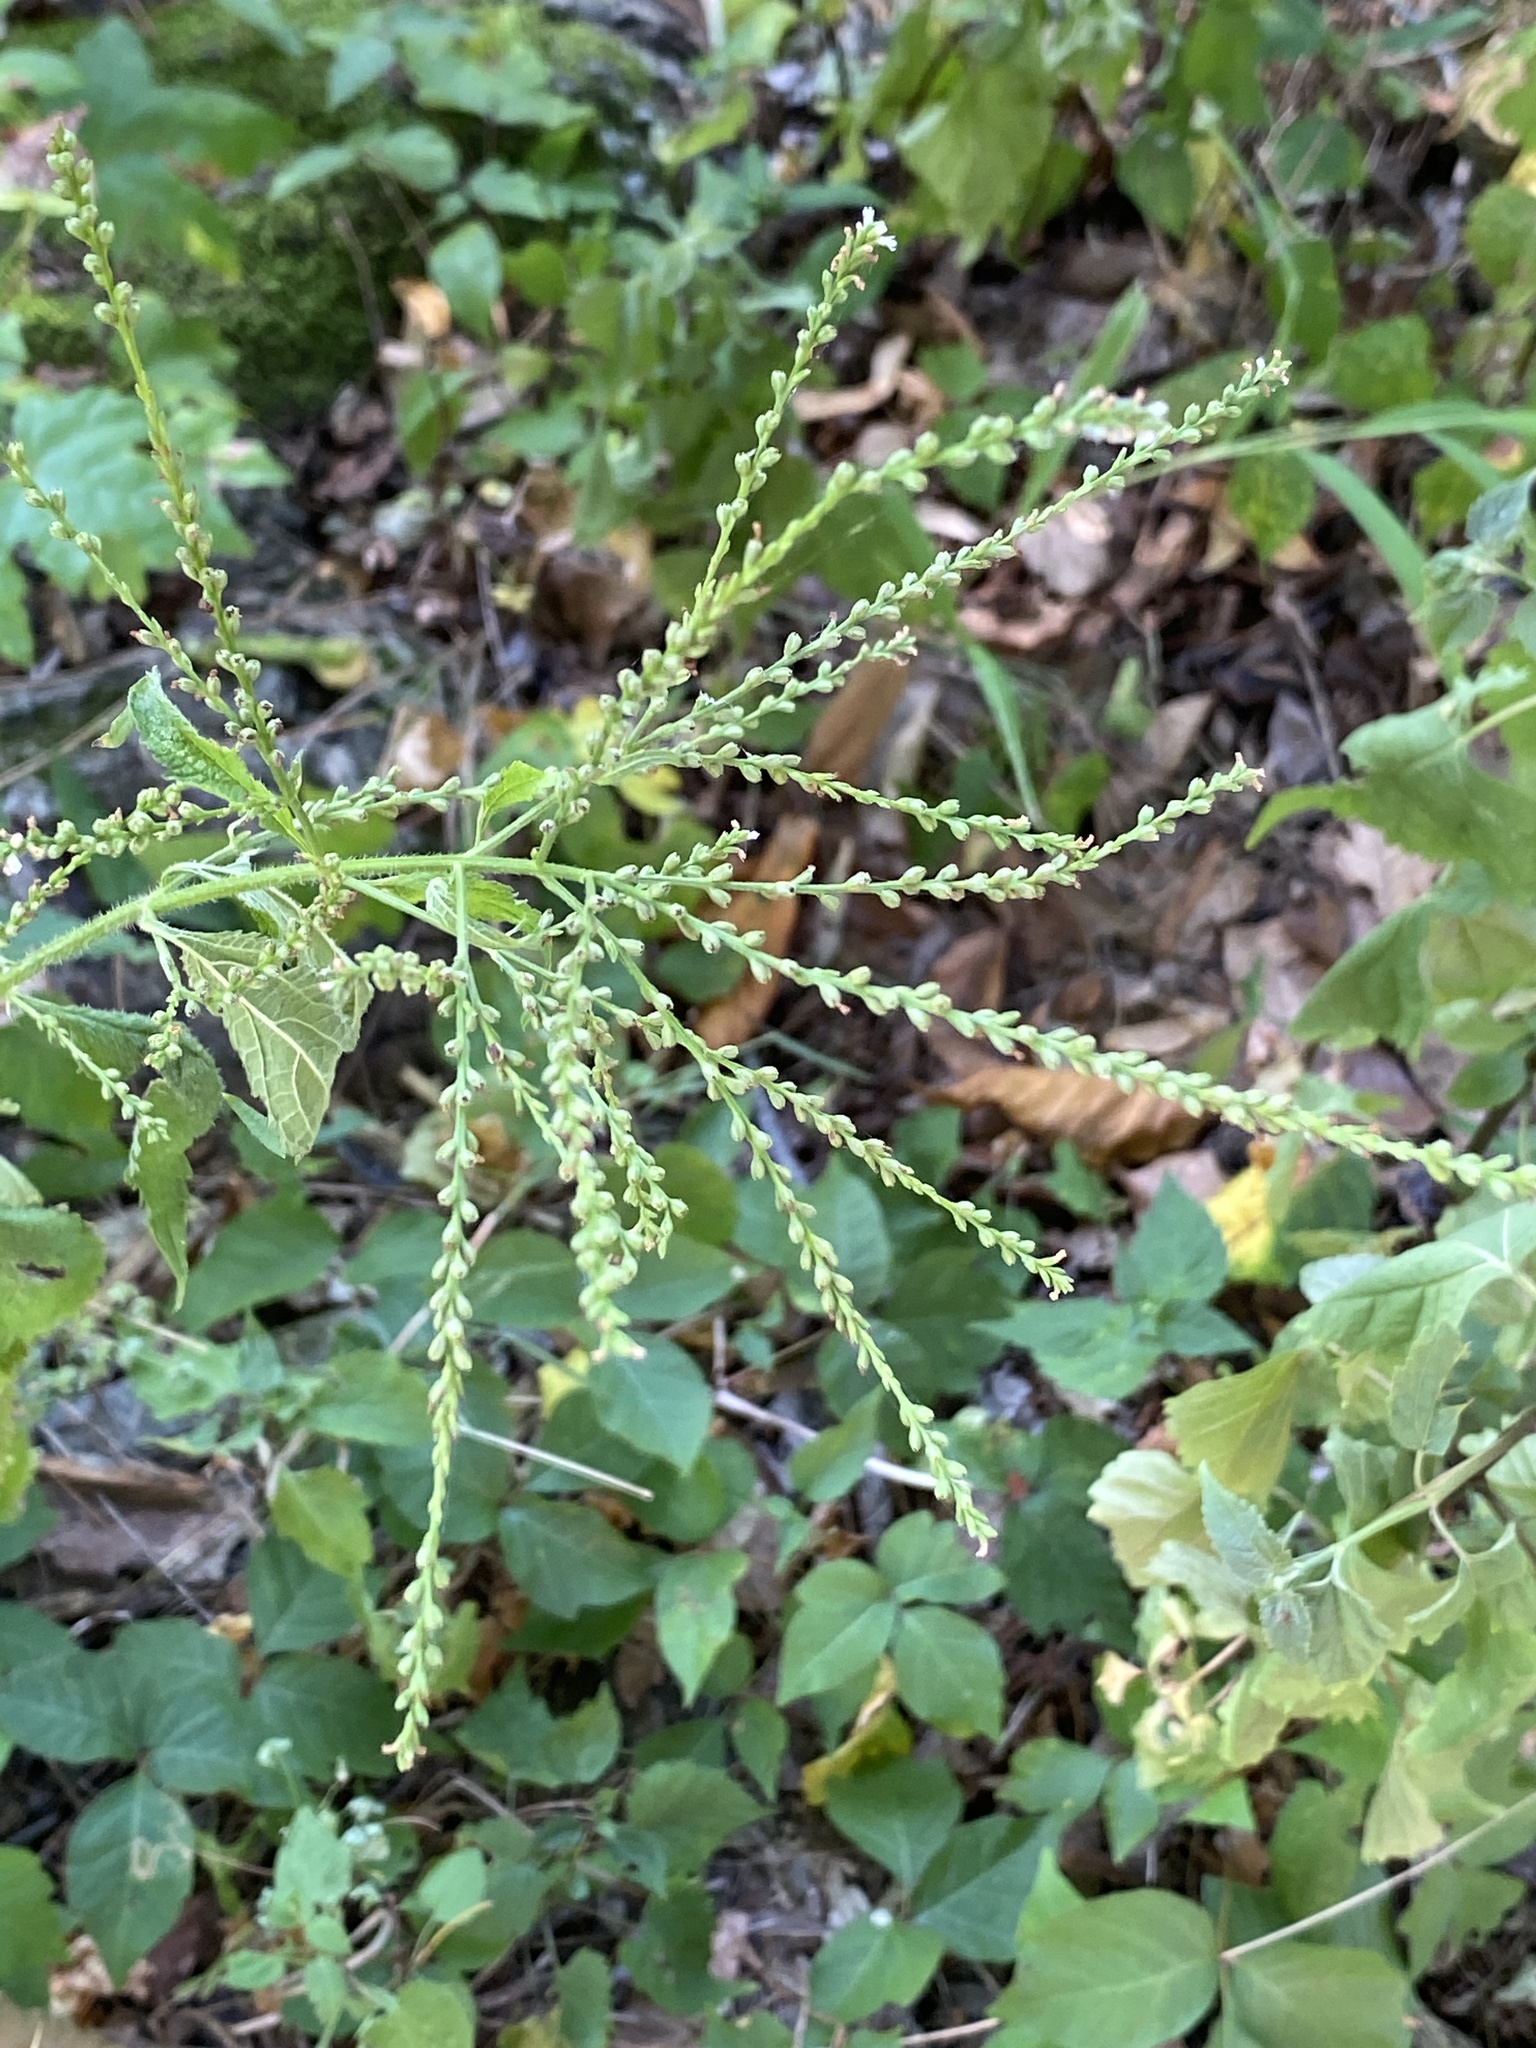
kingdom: Plantae
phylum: Tracheophyta
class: Magnoliopsida
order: Lamiales
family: Verbenaceae
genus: Verbena
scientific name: Verbena urticifolia
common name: Nettle-leaved vervain
